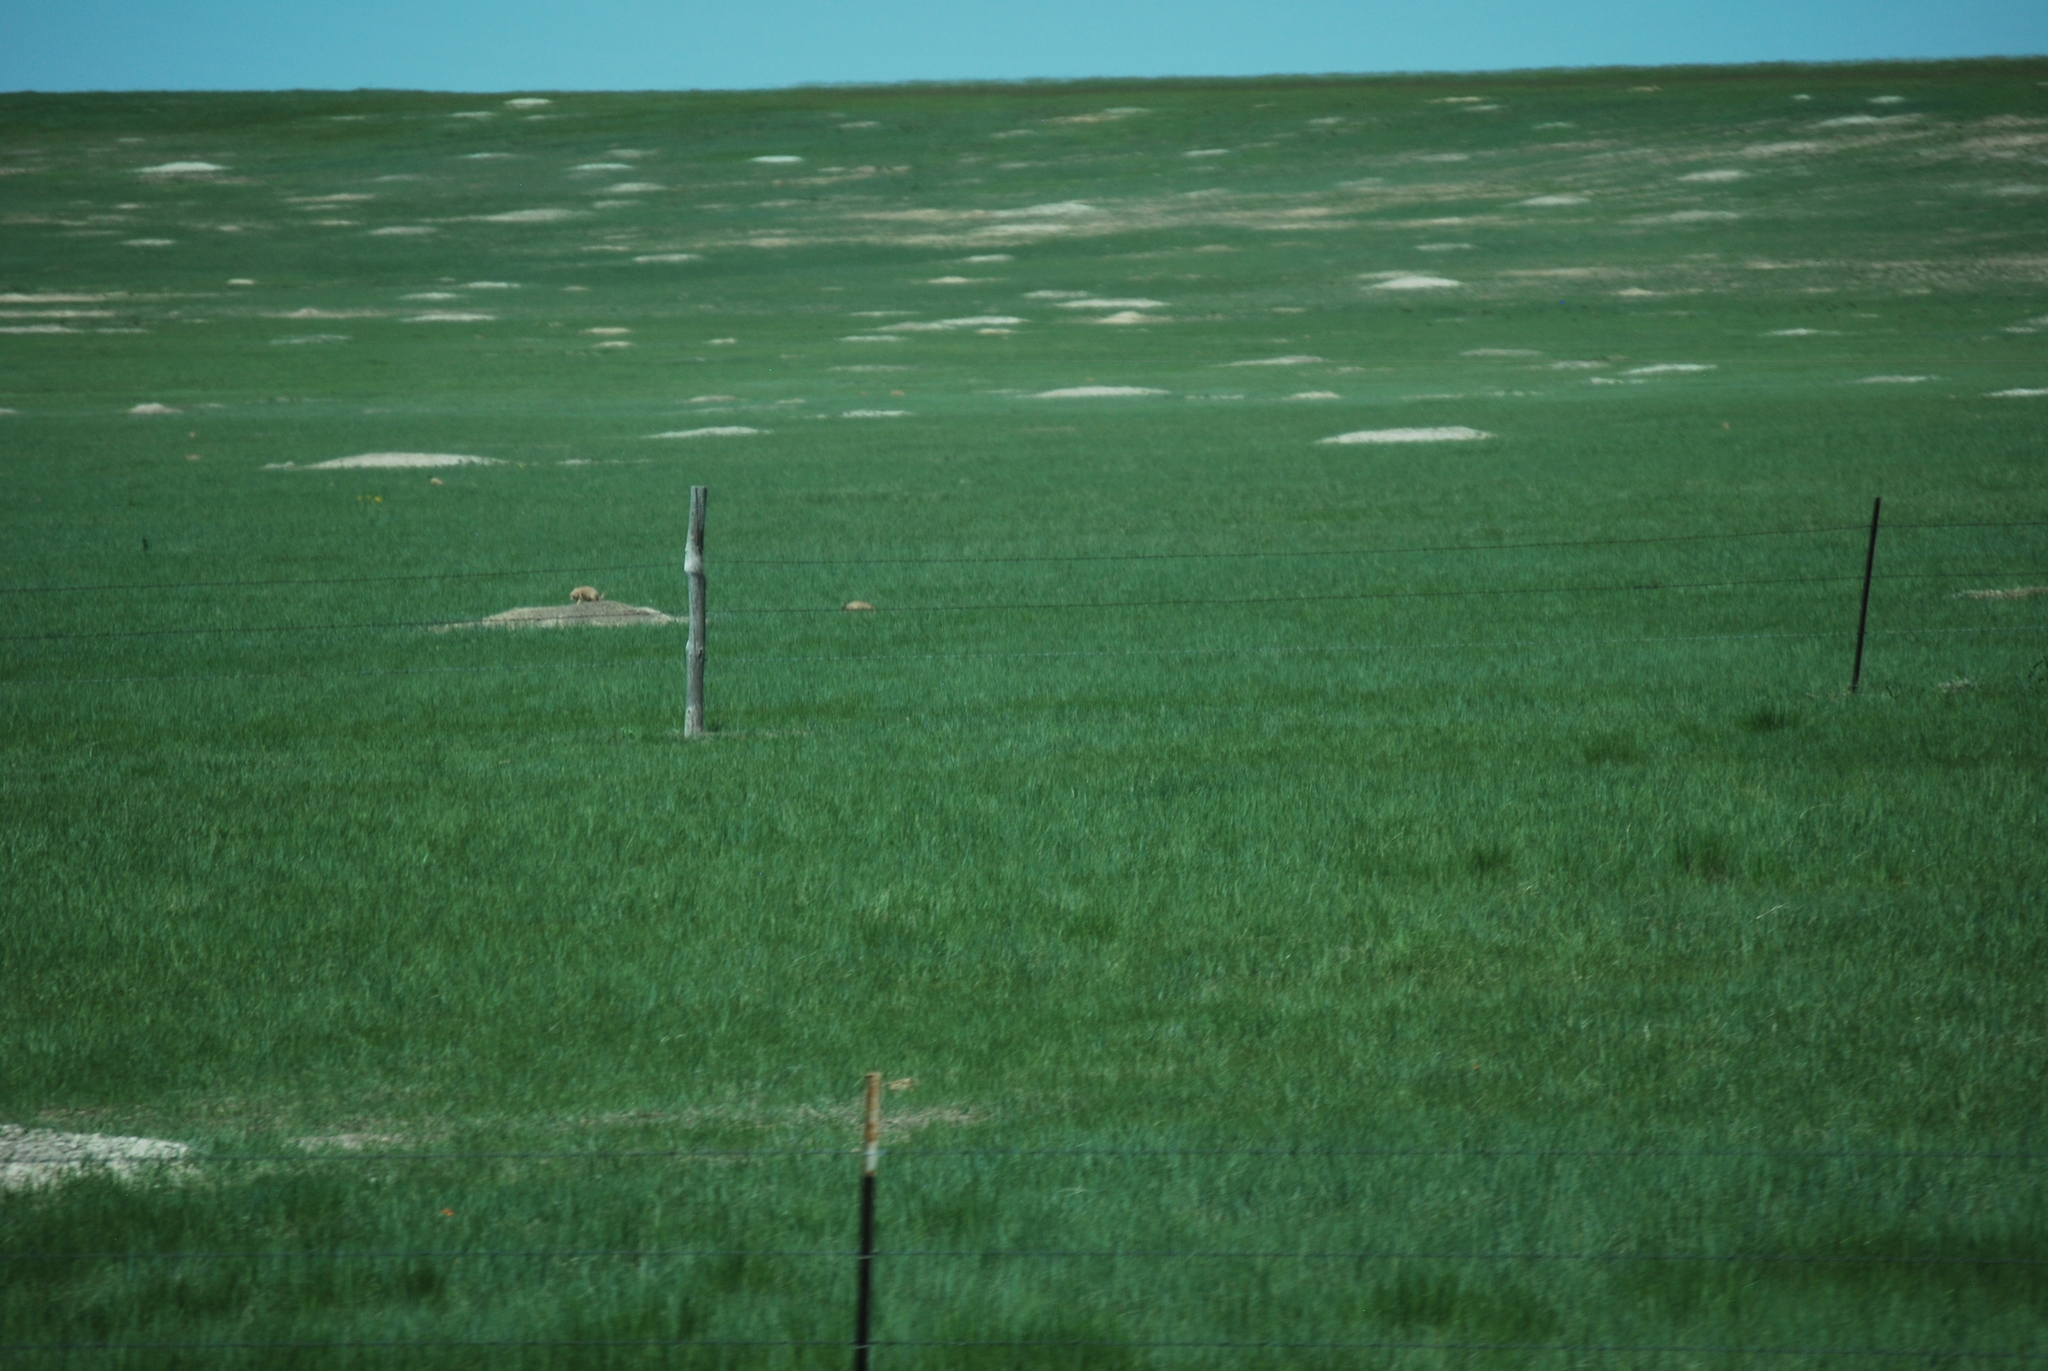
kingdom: Animalia
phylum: Chordata
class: Mammalia
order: Rodentia
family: Sciuridae
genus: Cynomys
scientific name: Cynomys ludovicianus
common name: Black-tailed prairie dog
